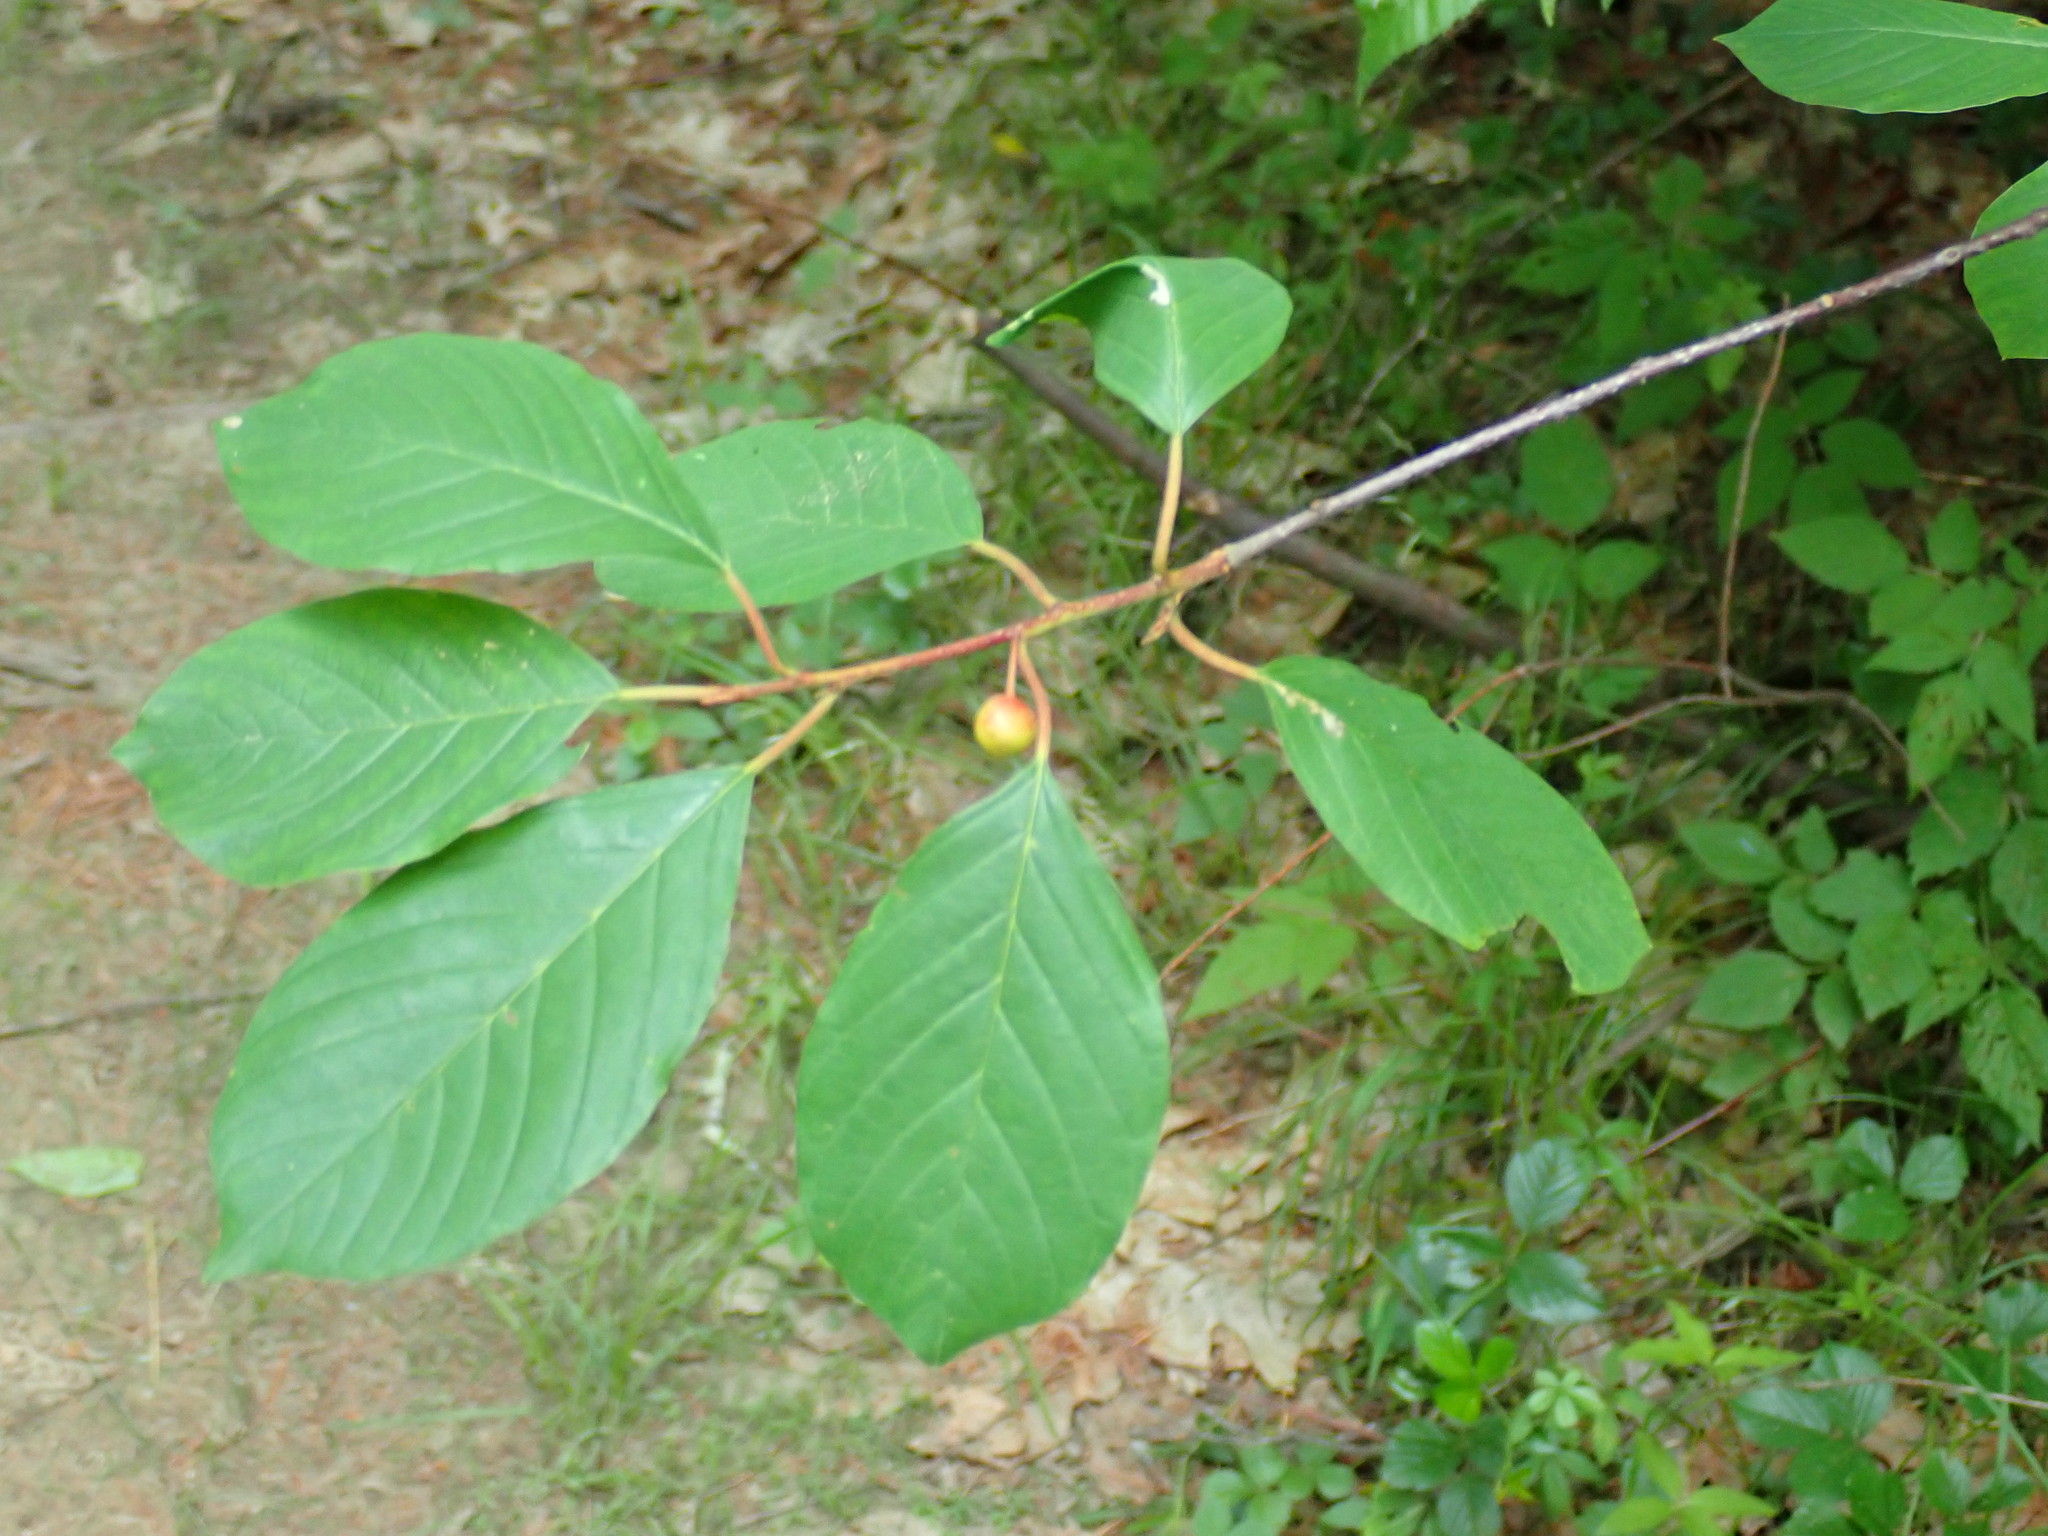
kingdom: Plantae
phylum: Tracheophyta
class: Magnoliopsida
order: Rosales
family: Rhamnaceae
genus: Frangula
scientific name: Frangula alnus
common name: Alder buckthorn
